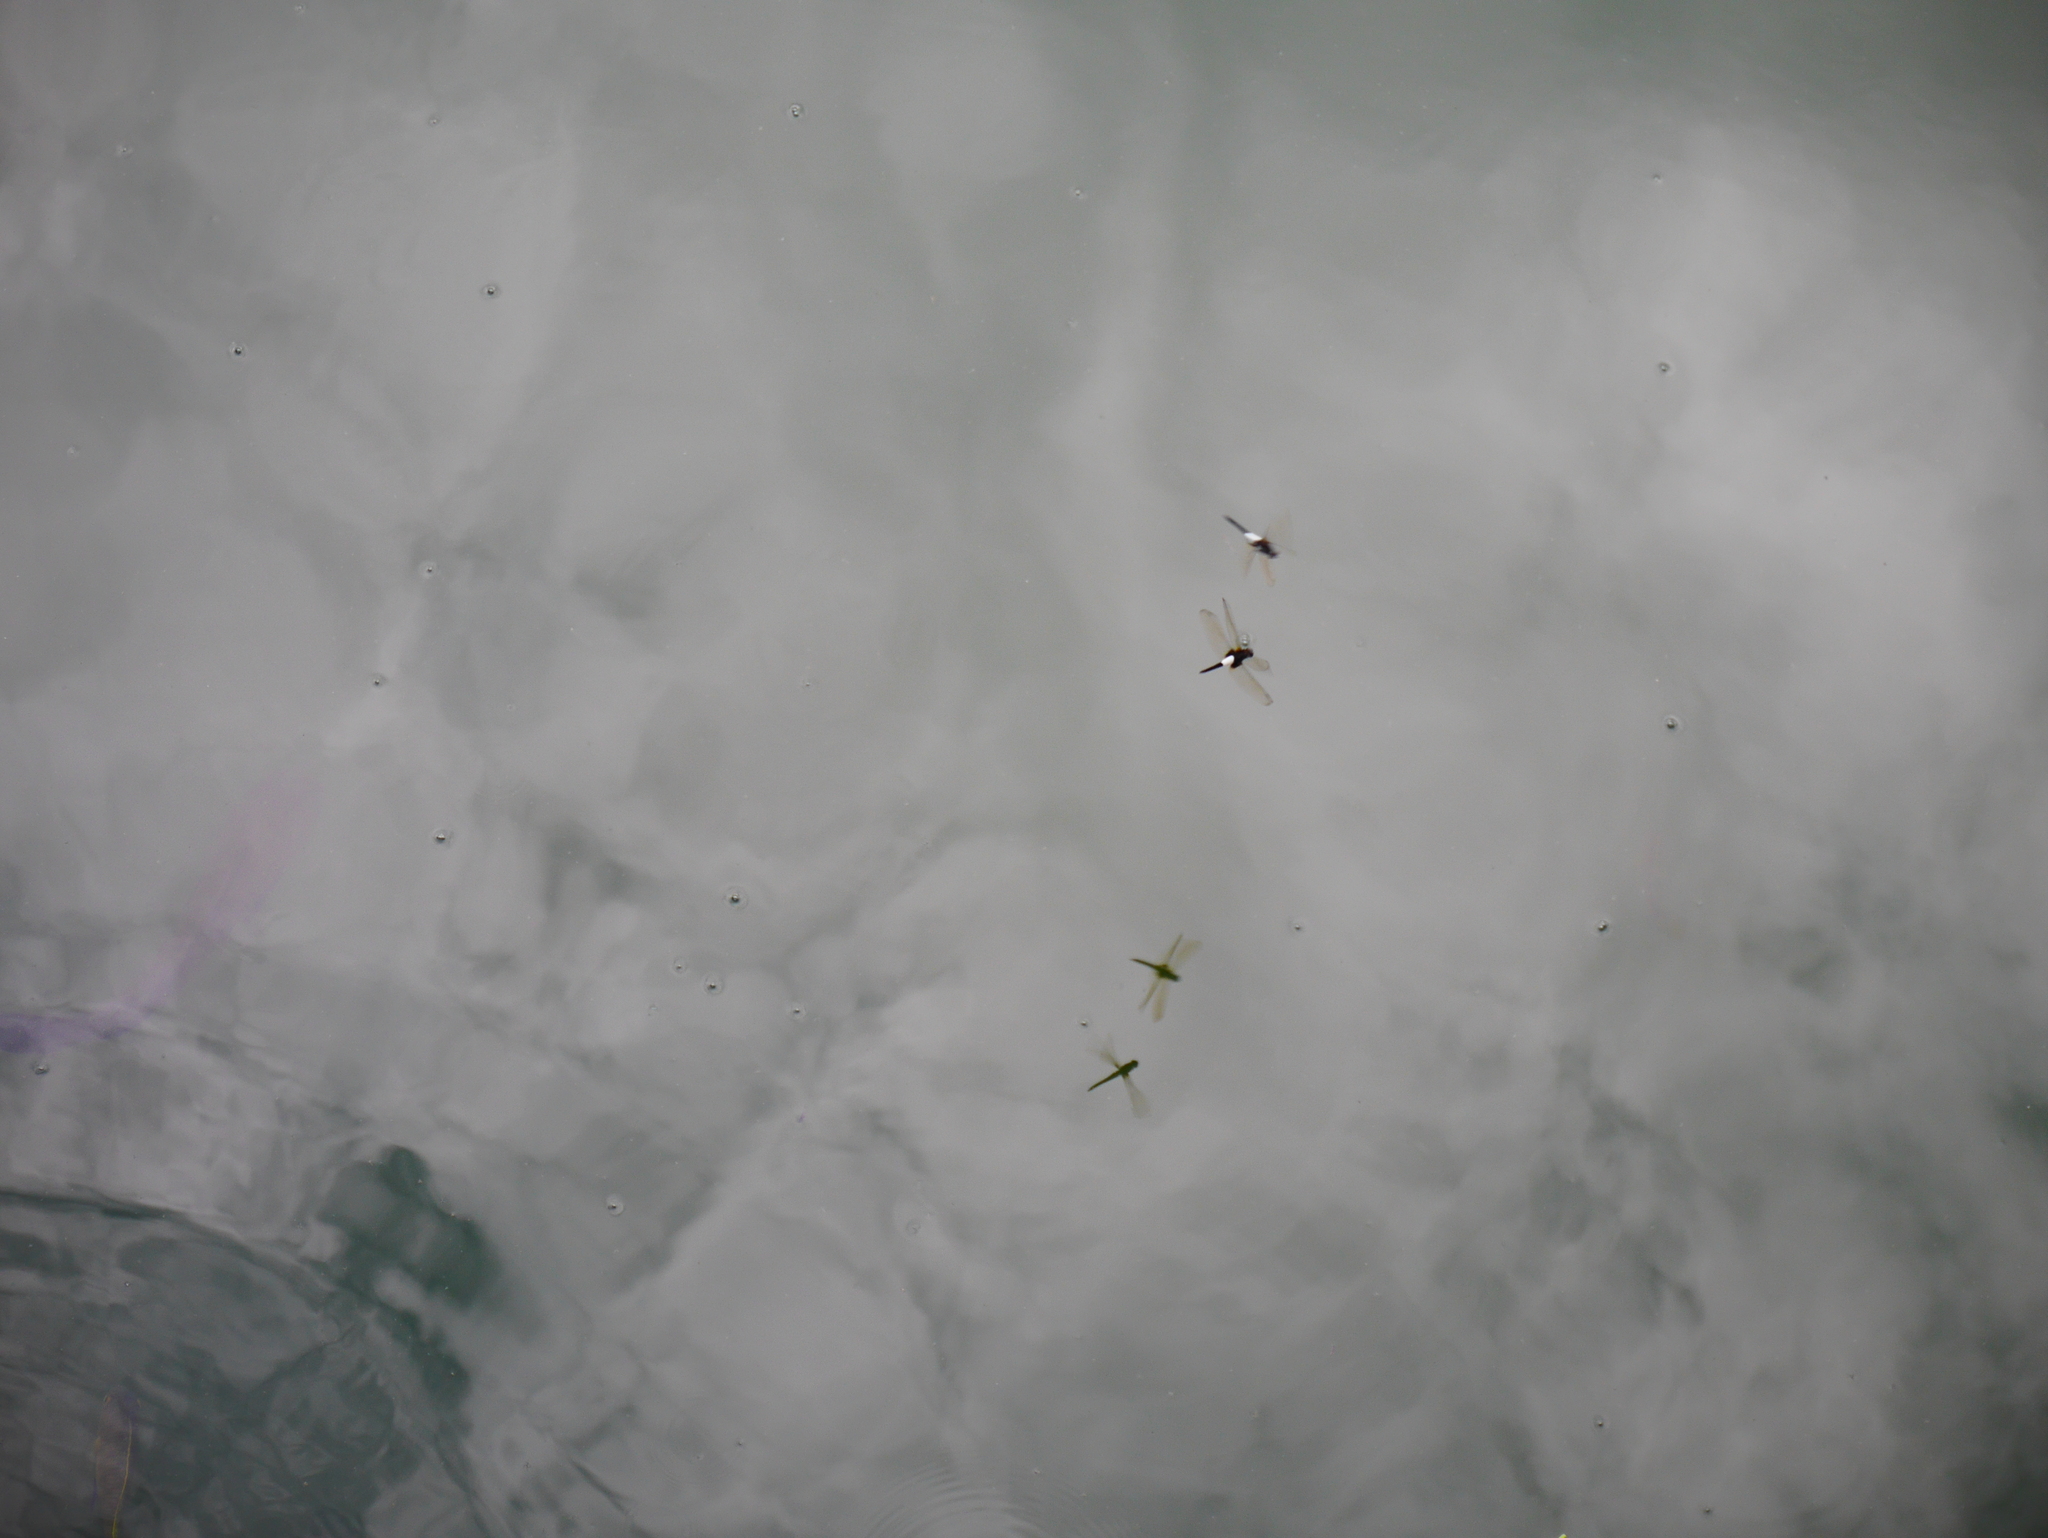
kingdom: Animalia
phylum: Arthropoda
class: Insecta
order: Odonata
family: Libellulidae
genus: Pseudothemis
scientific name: Pseudothemis zonata
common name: Pied skimmer
